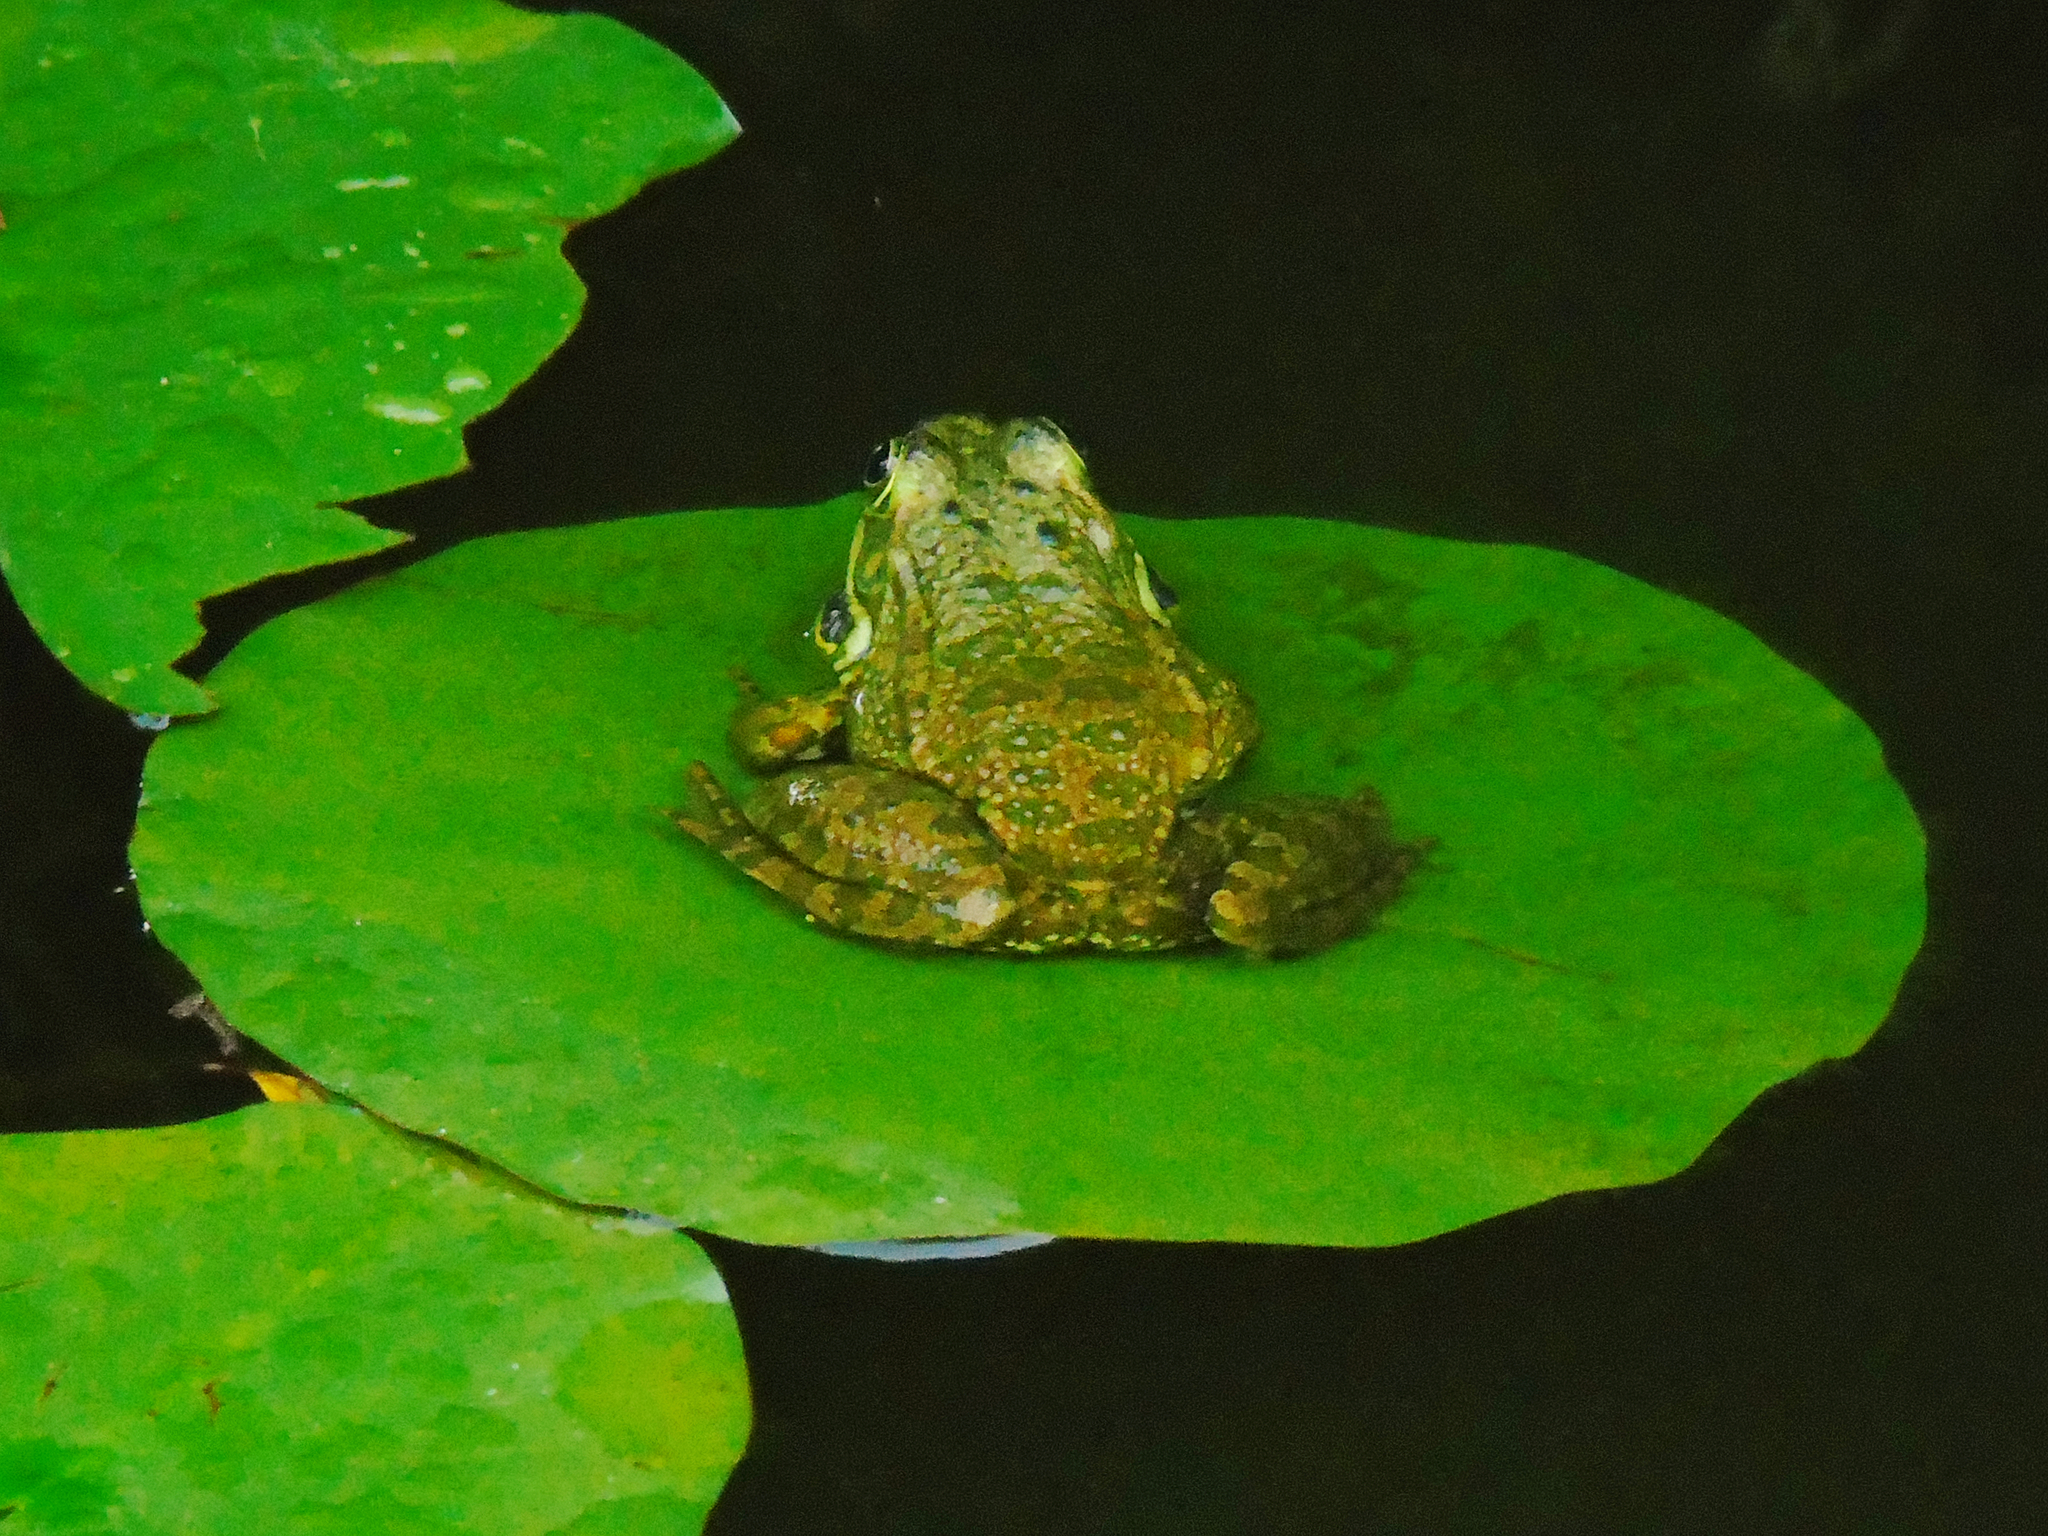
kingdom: Animalia
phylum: Chordata
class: Amphibia
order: Anura
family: Ranidae
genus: Pelophylax
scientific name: Pelophylax ridibundus
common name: Marsh frog
